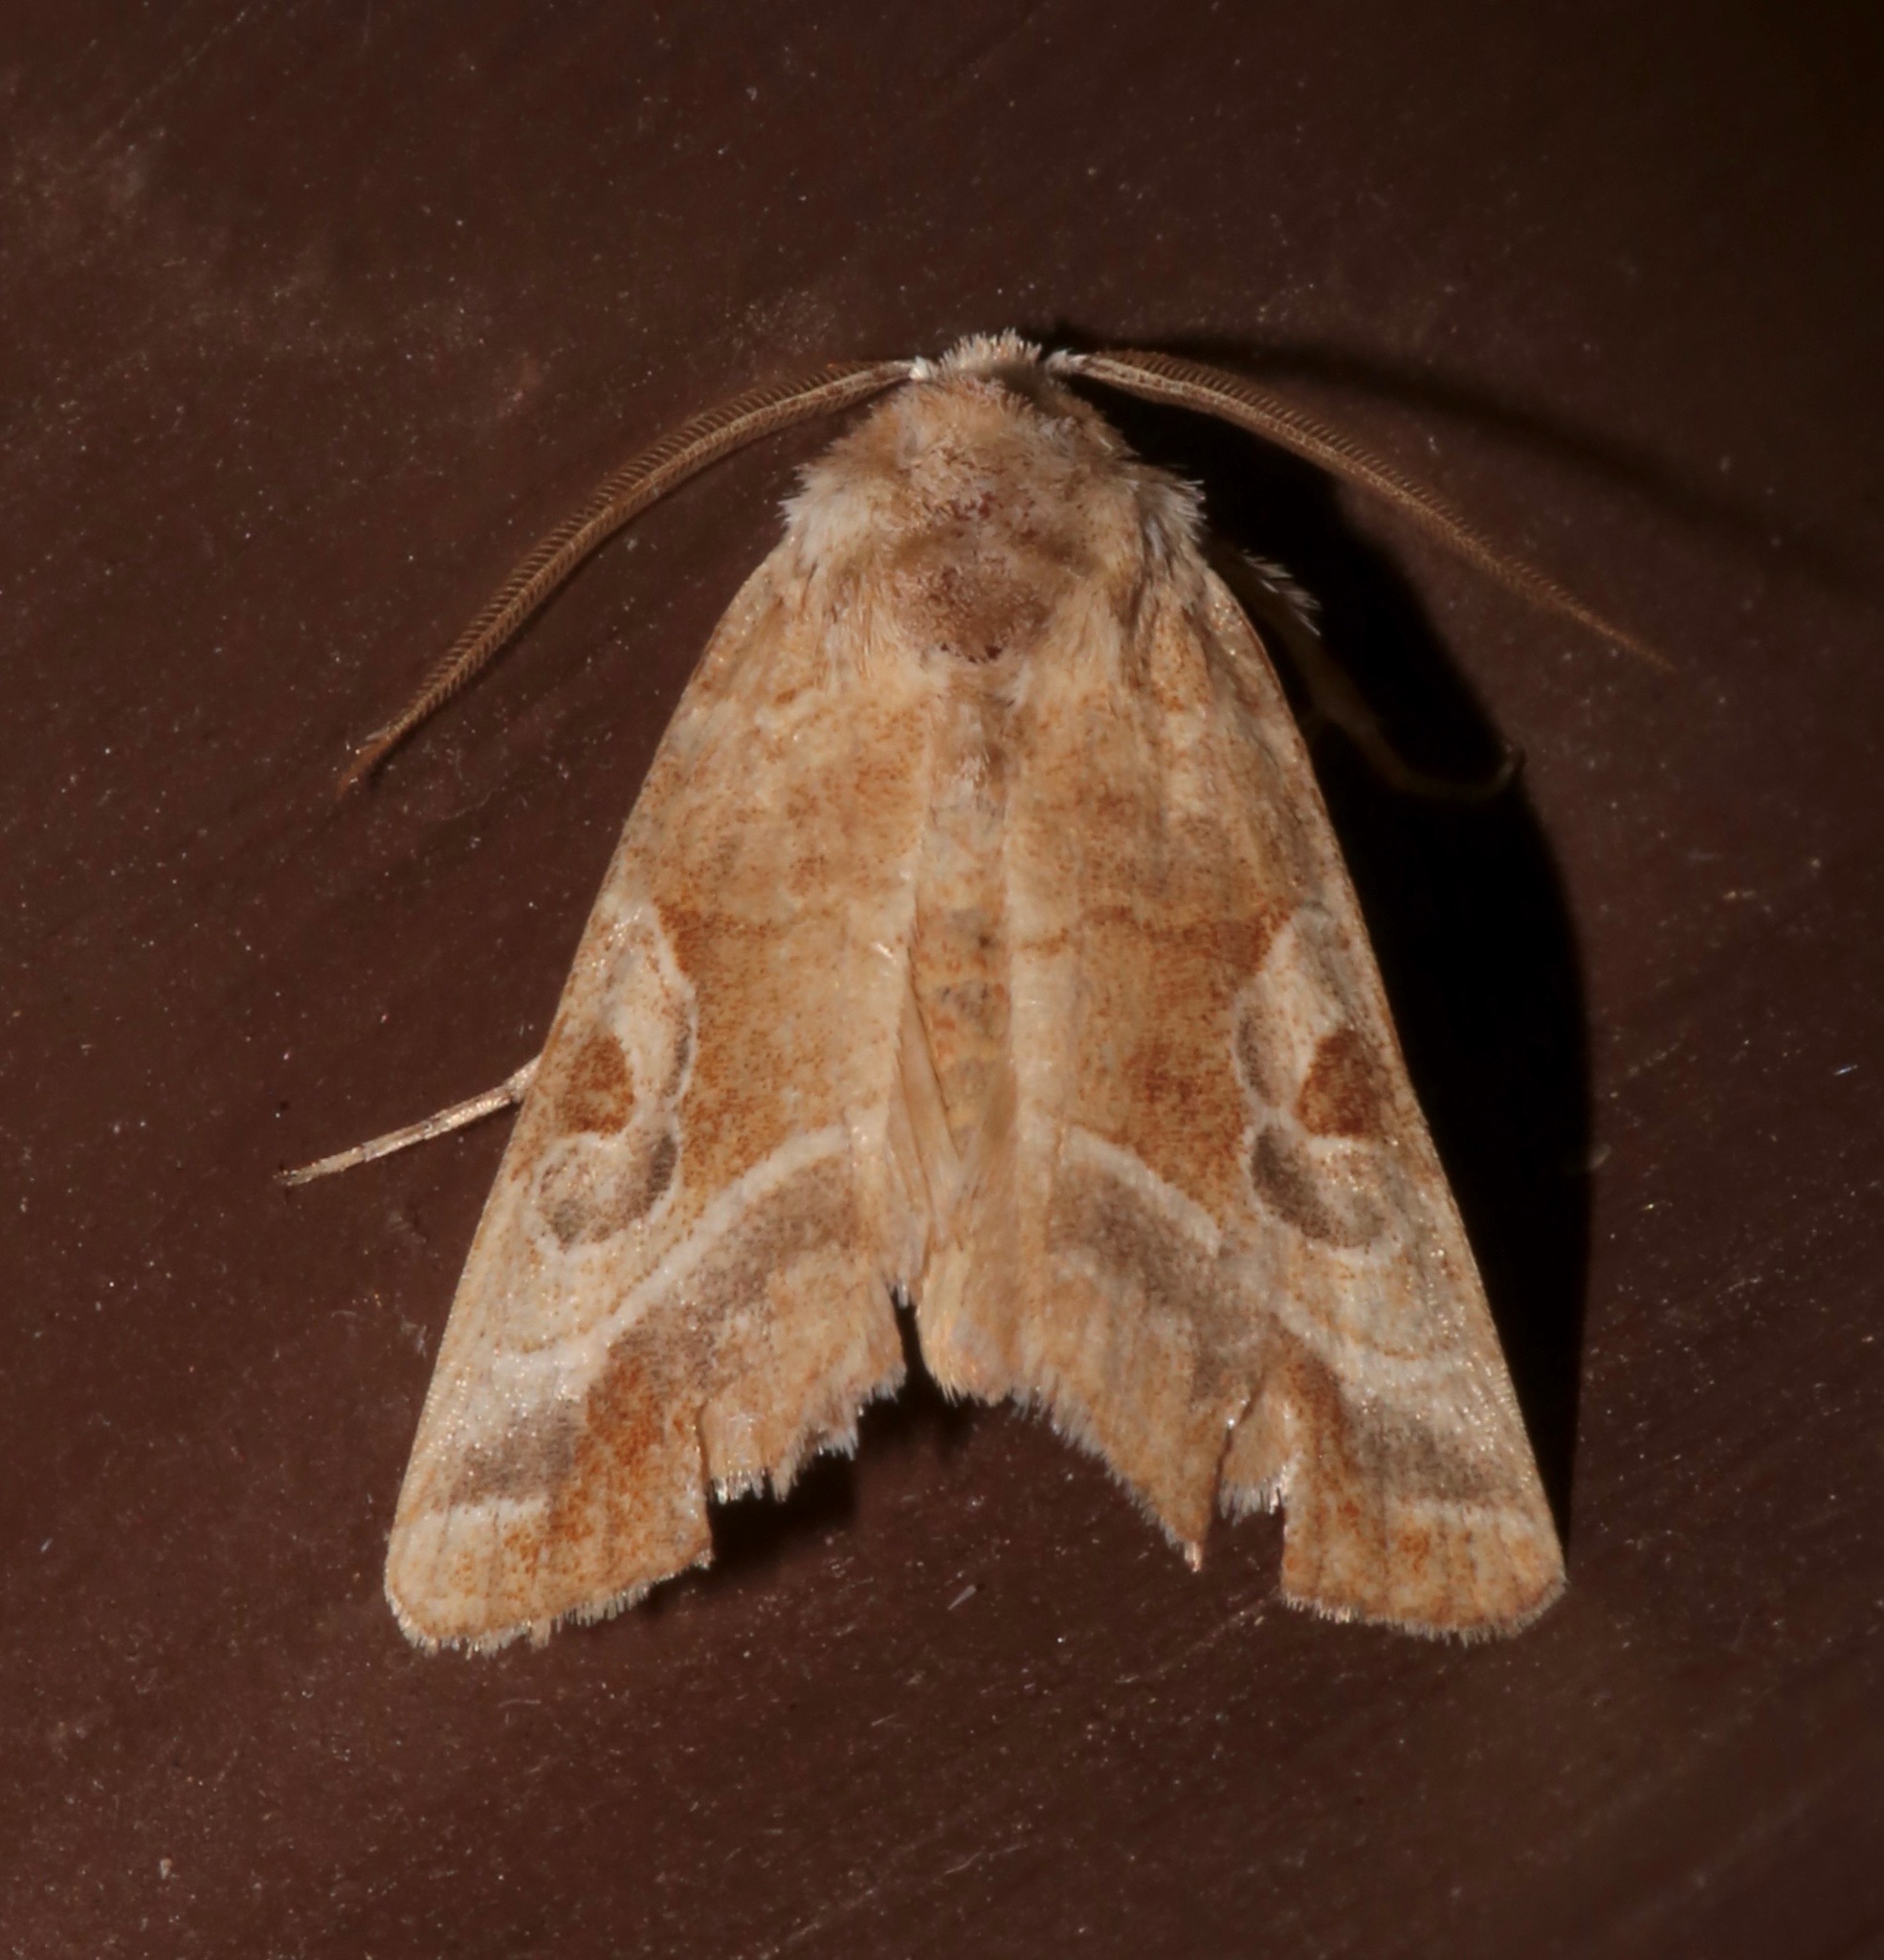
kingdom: Animalia
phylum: Arthropoda
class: Insecta
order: Lepidoptera
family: Noctuidae
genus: Hexorthodes
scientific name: Hexorthodes accurata
